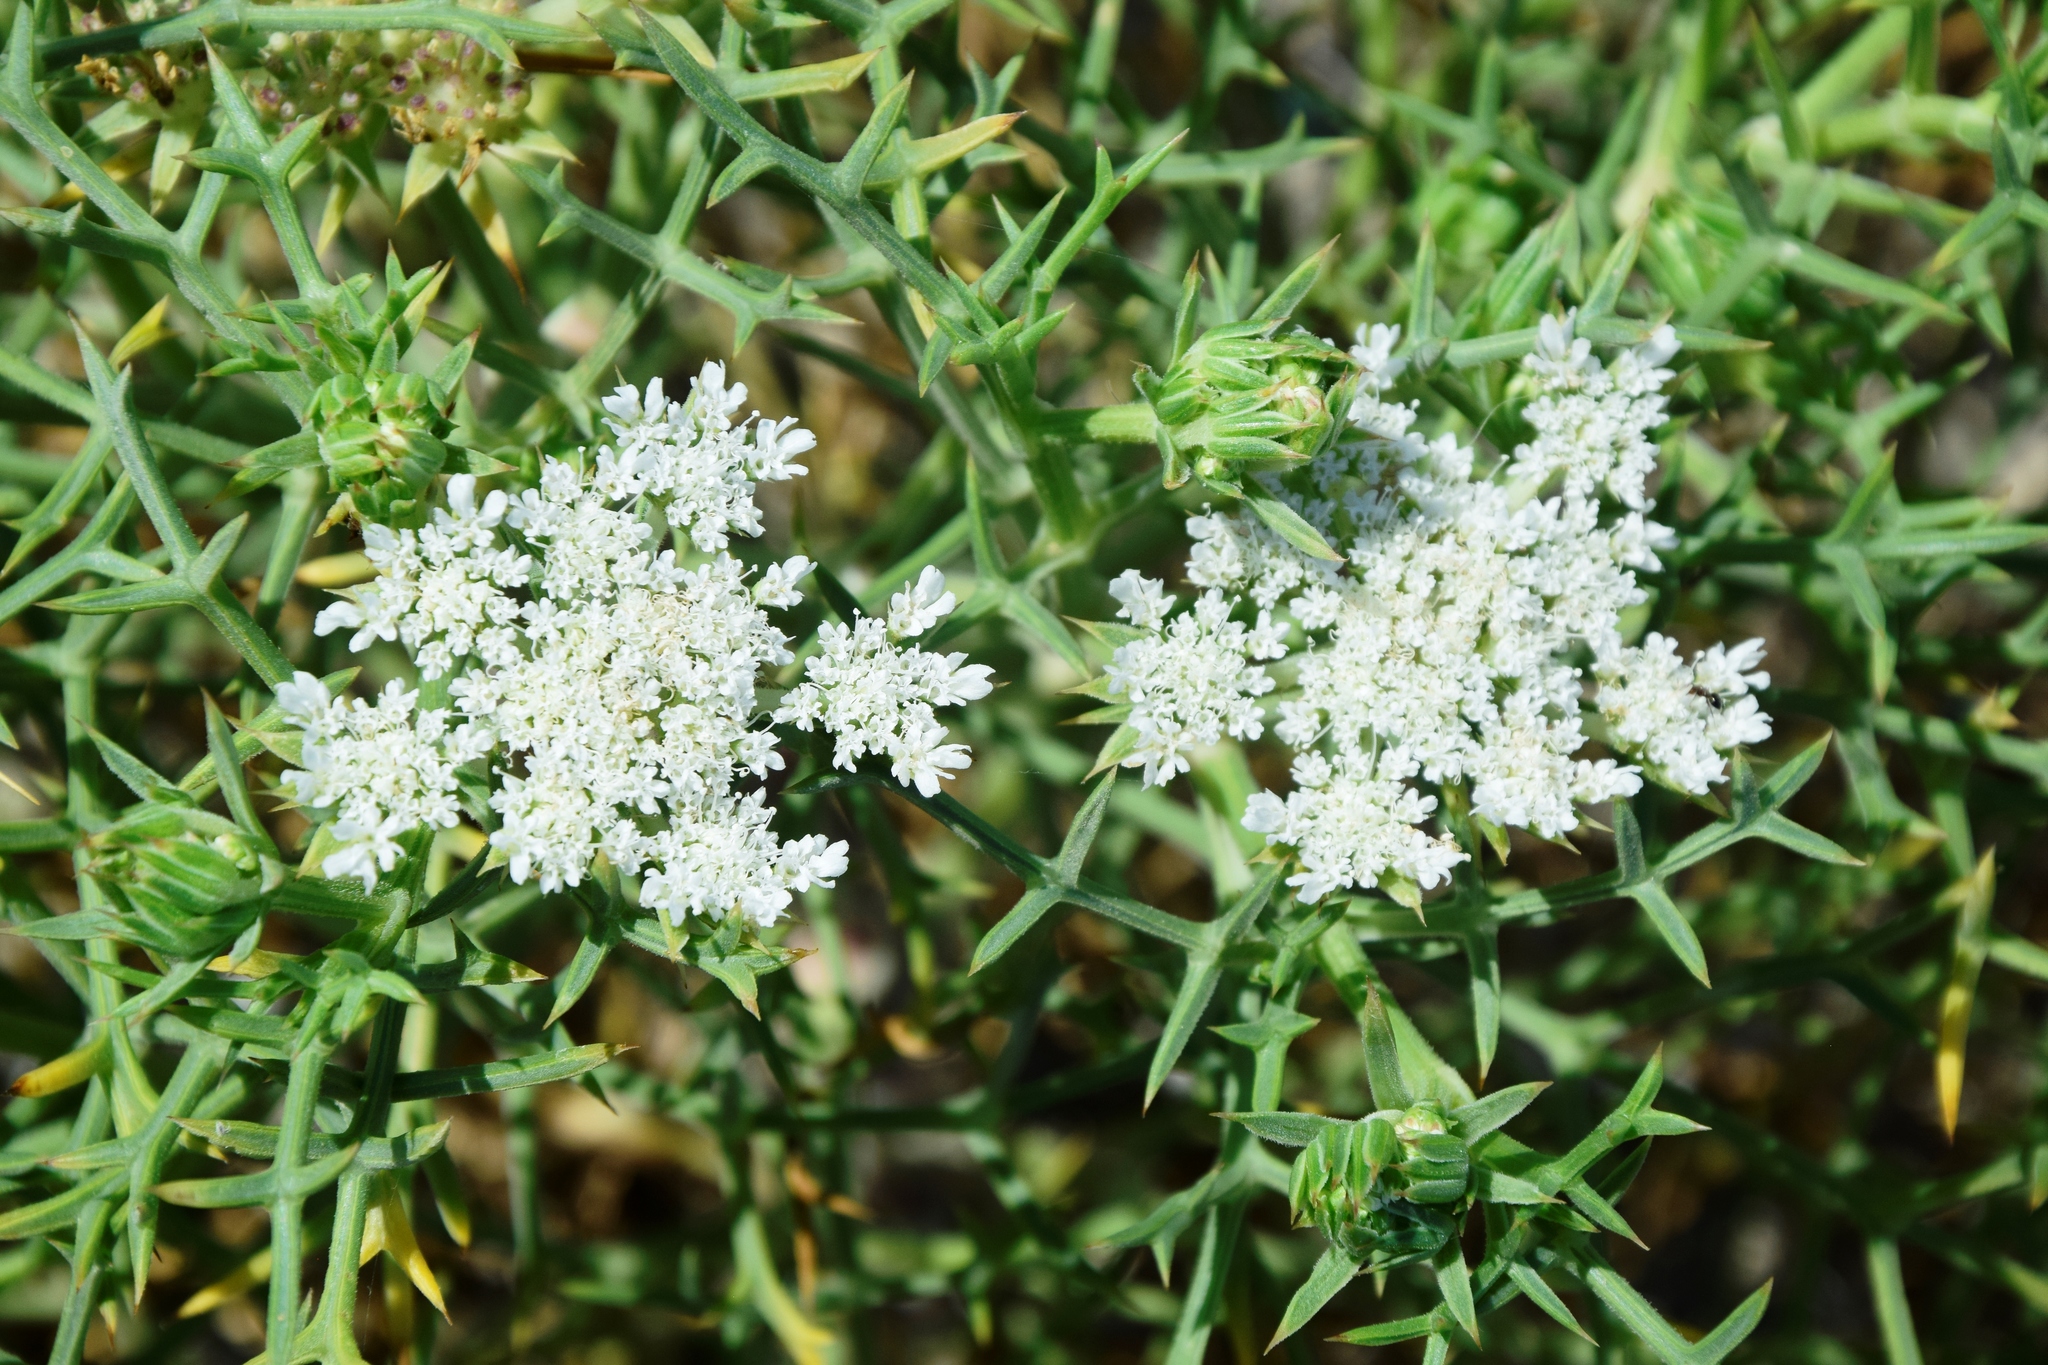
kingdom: Plantae
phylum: Tracheophyta
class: Magnoliopsida
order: Apiales
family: Apiaceae
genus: Echinophora
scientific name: Echinophora spinosa
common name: Prickly samphire
